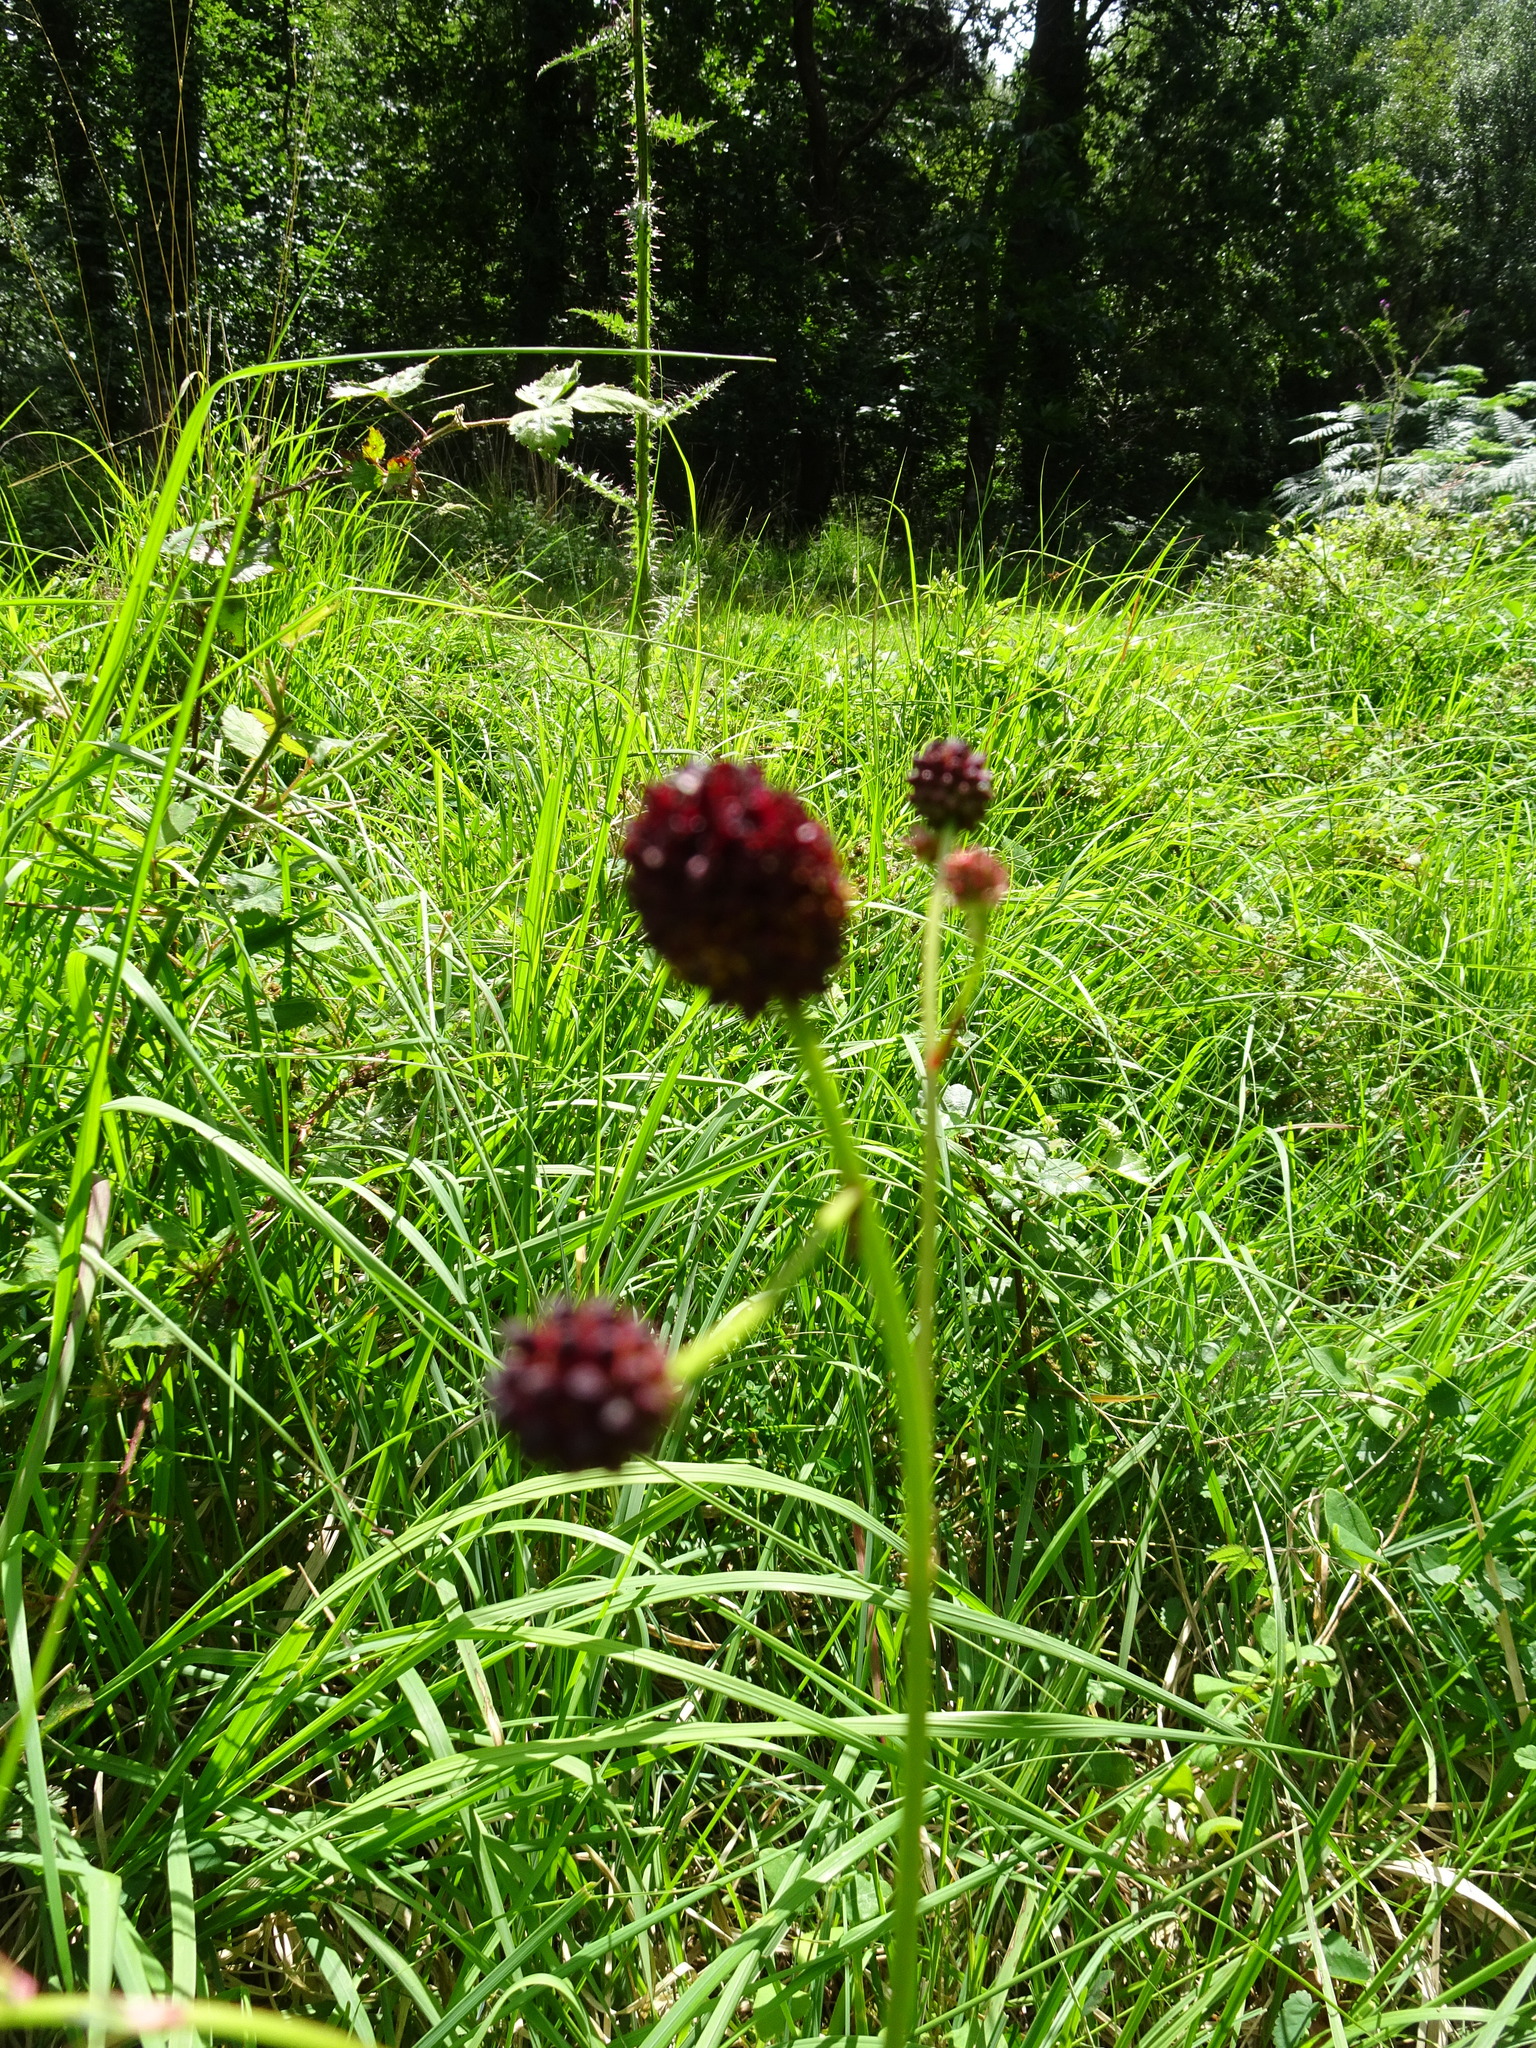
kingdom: Plantae
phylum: Tracheophyta
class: Magnoliopsida
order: Rosales
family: Rosaceae
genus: Sanguisorba
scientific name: Sanguisorba officinalis
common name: Great burnet
